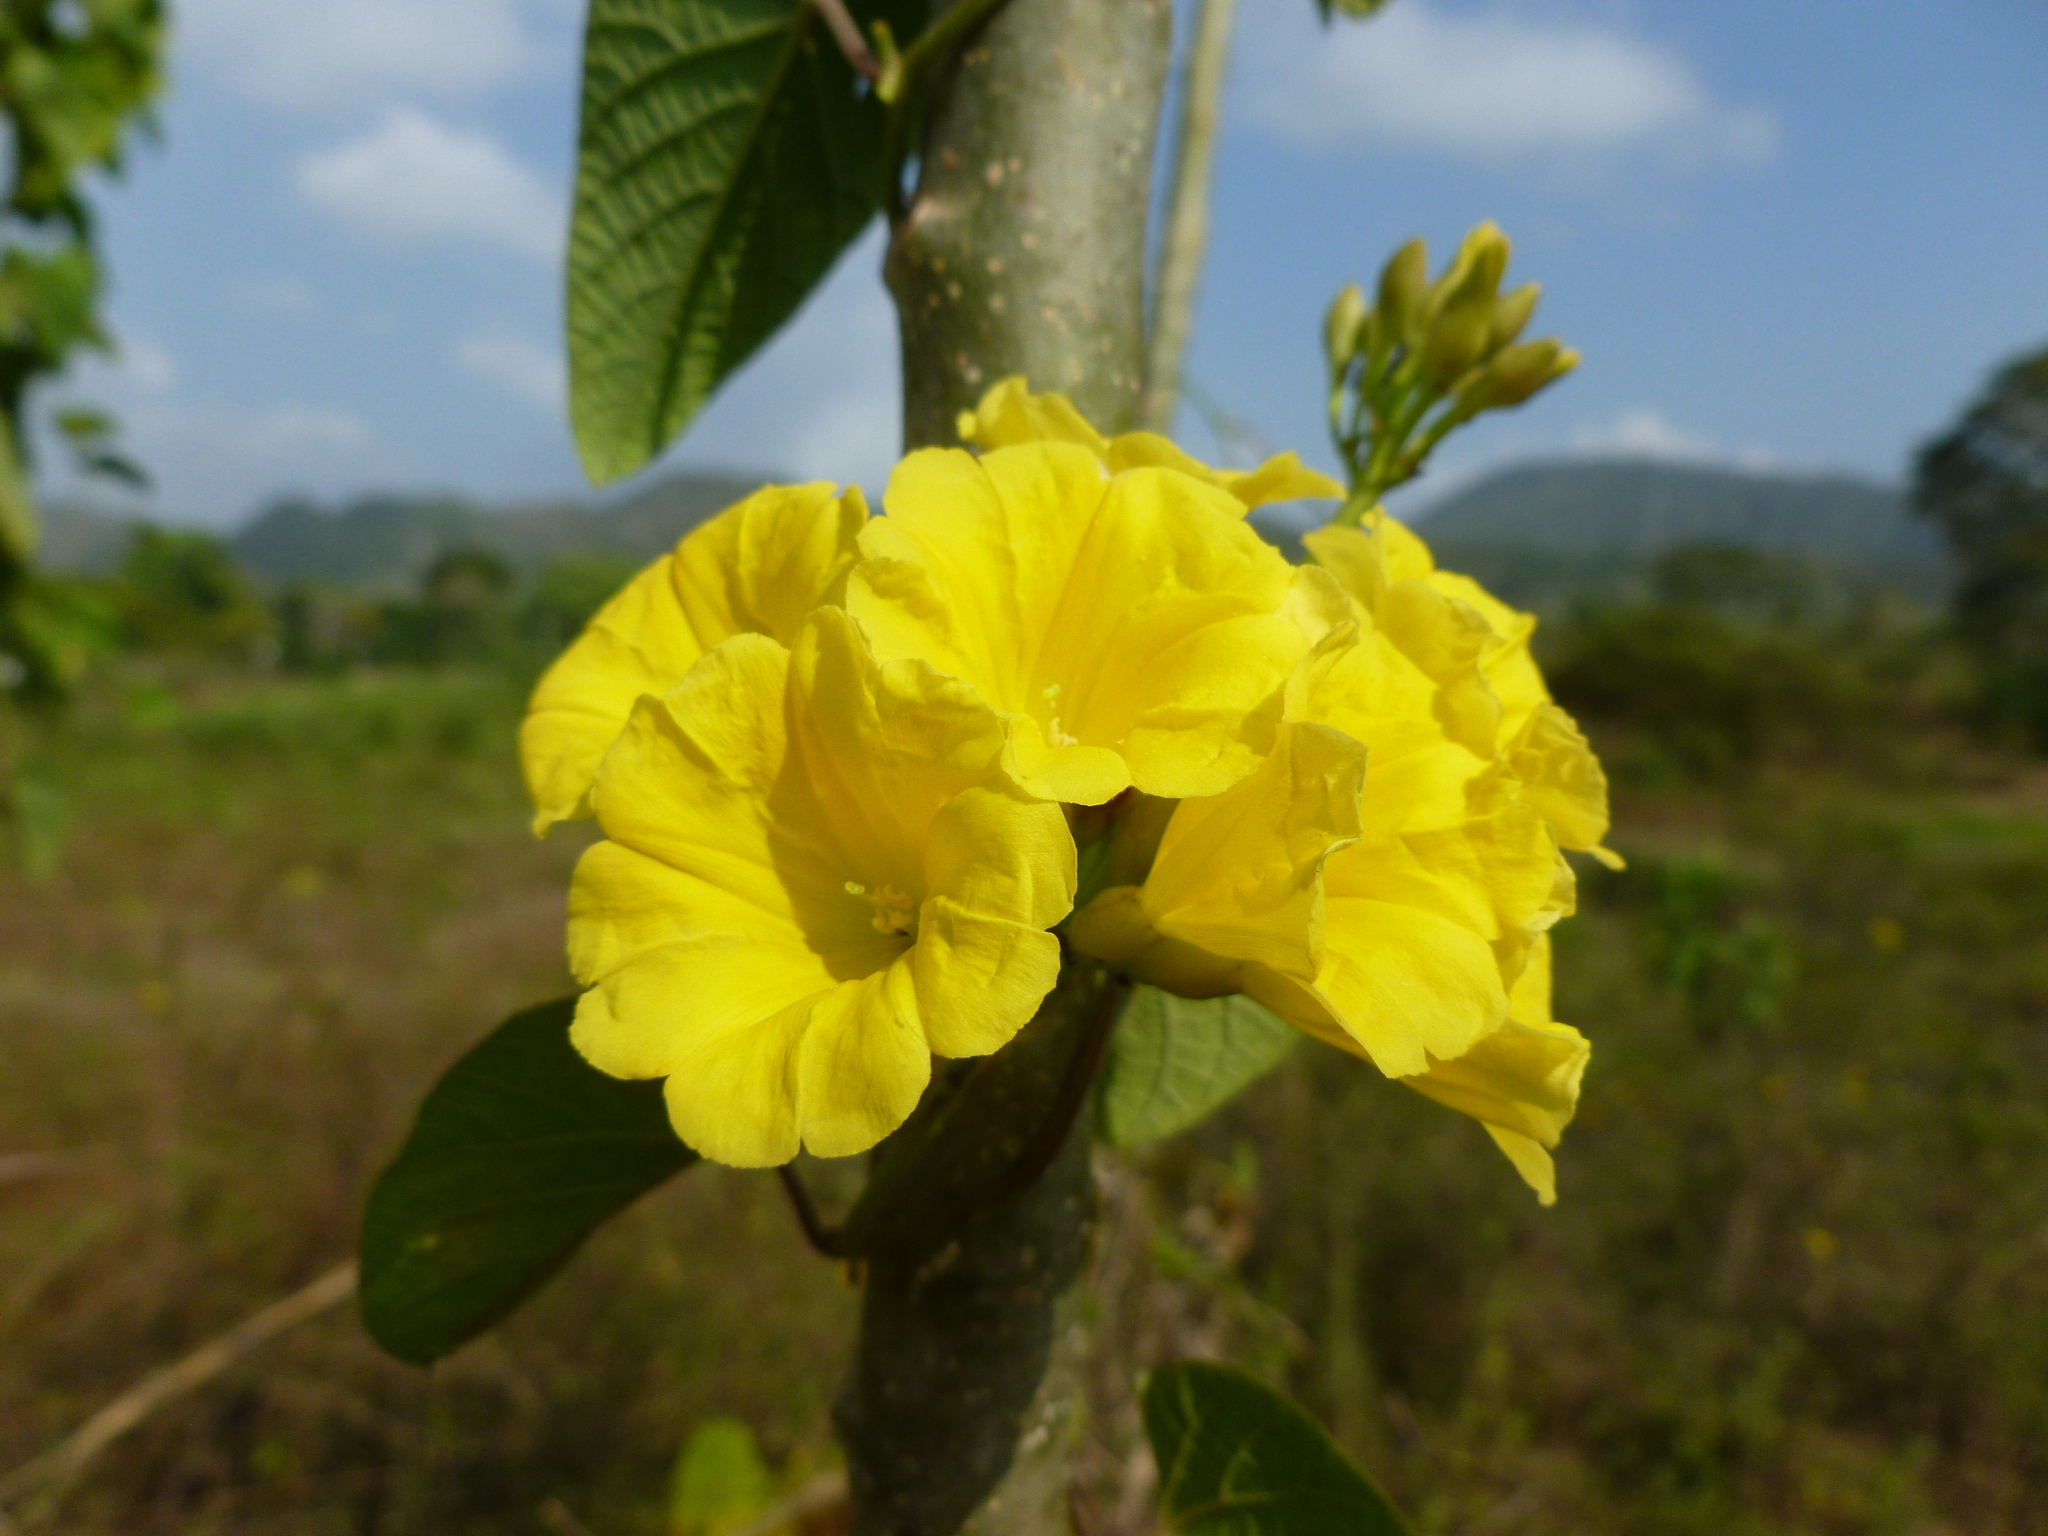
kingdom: Plantae
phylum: Tracheophyta
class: Magnoliopsida
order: Solanales
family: Convolvulaceae
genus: Camonea
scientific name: Camonea umbellata
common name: Hogvine
